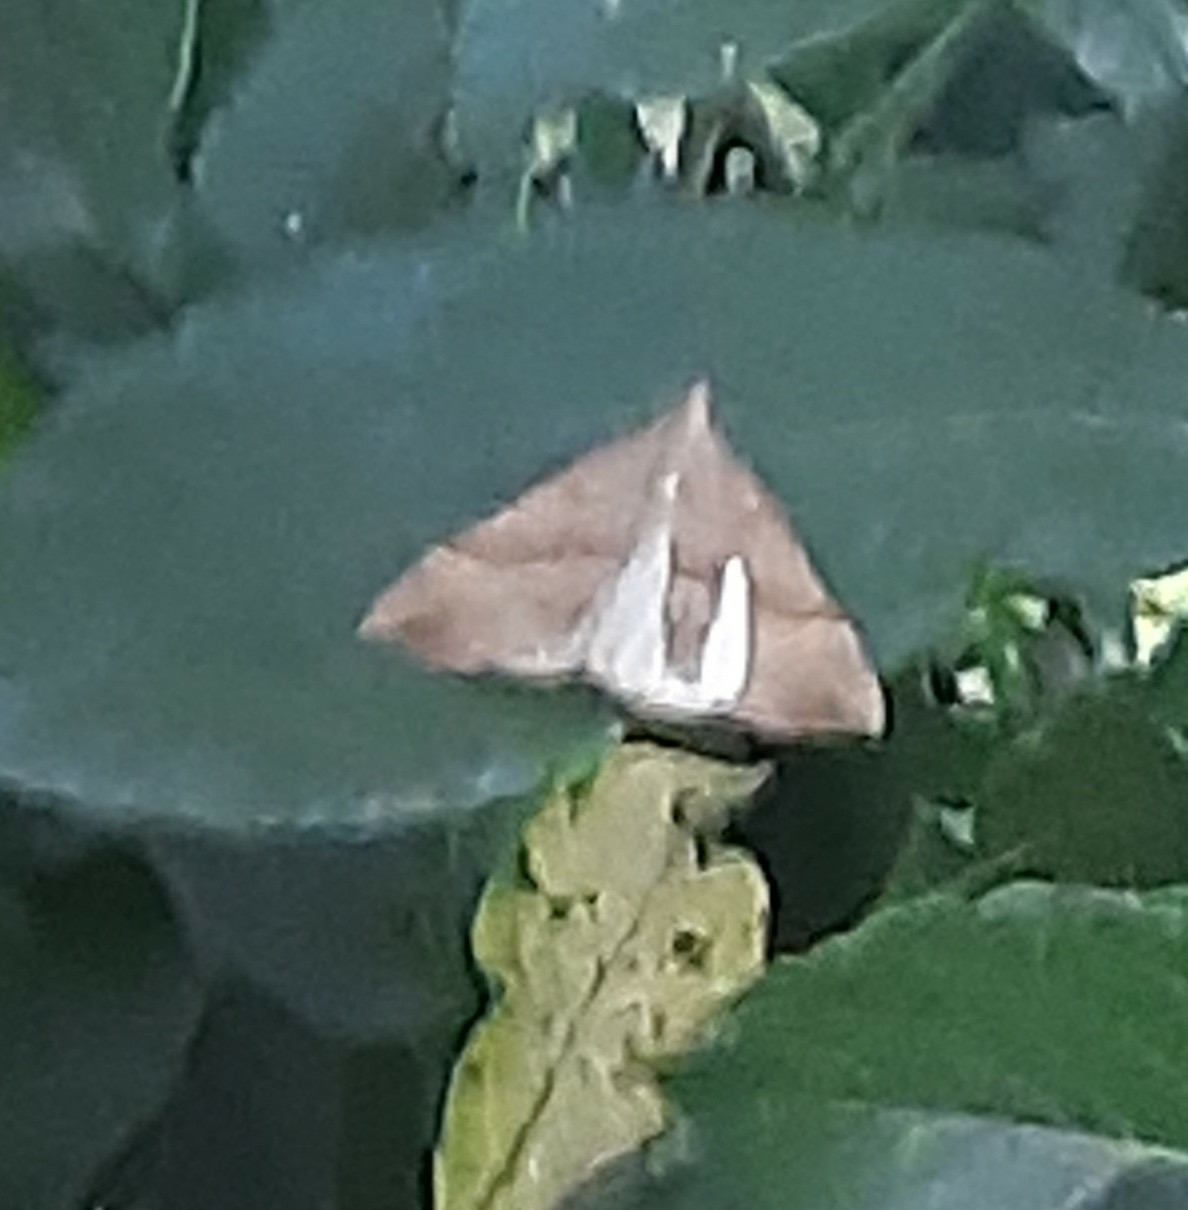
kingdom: Animalia
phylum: Arthropoda
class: Insecta
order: Lepidoptera
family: Erebidae
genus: Hypena
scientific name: Hypena proboscidalis
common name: Snout
